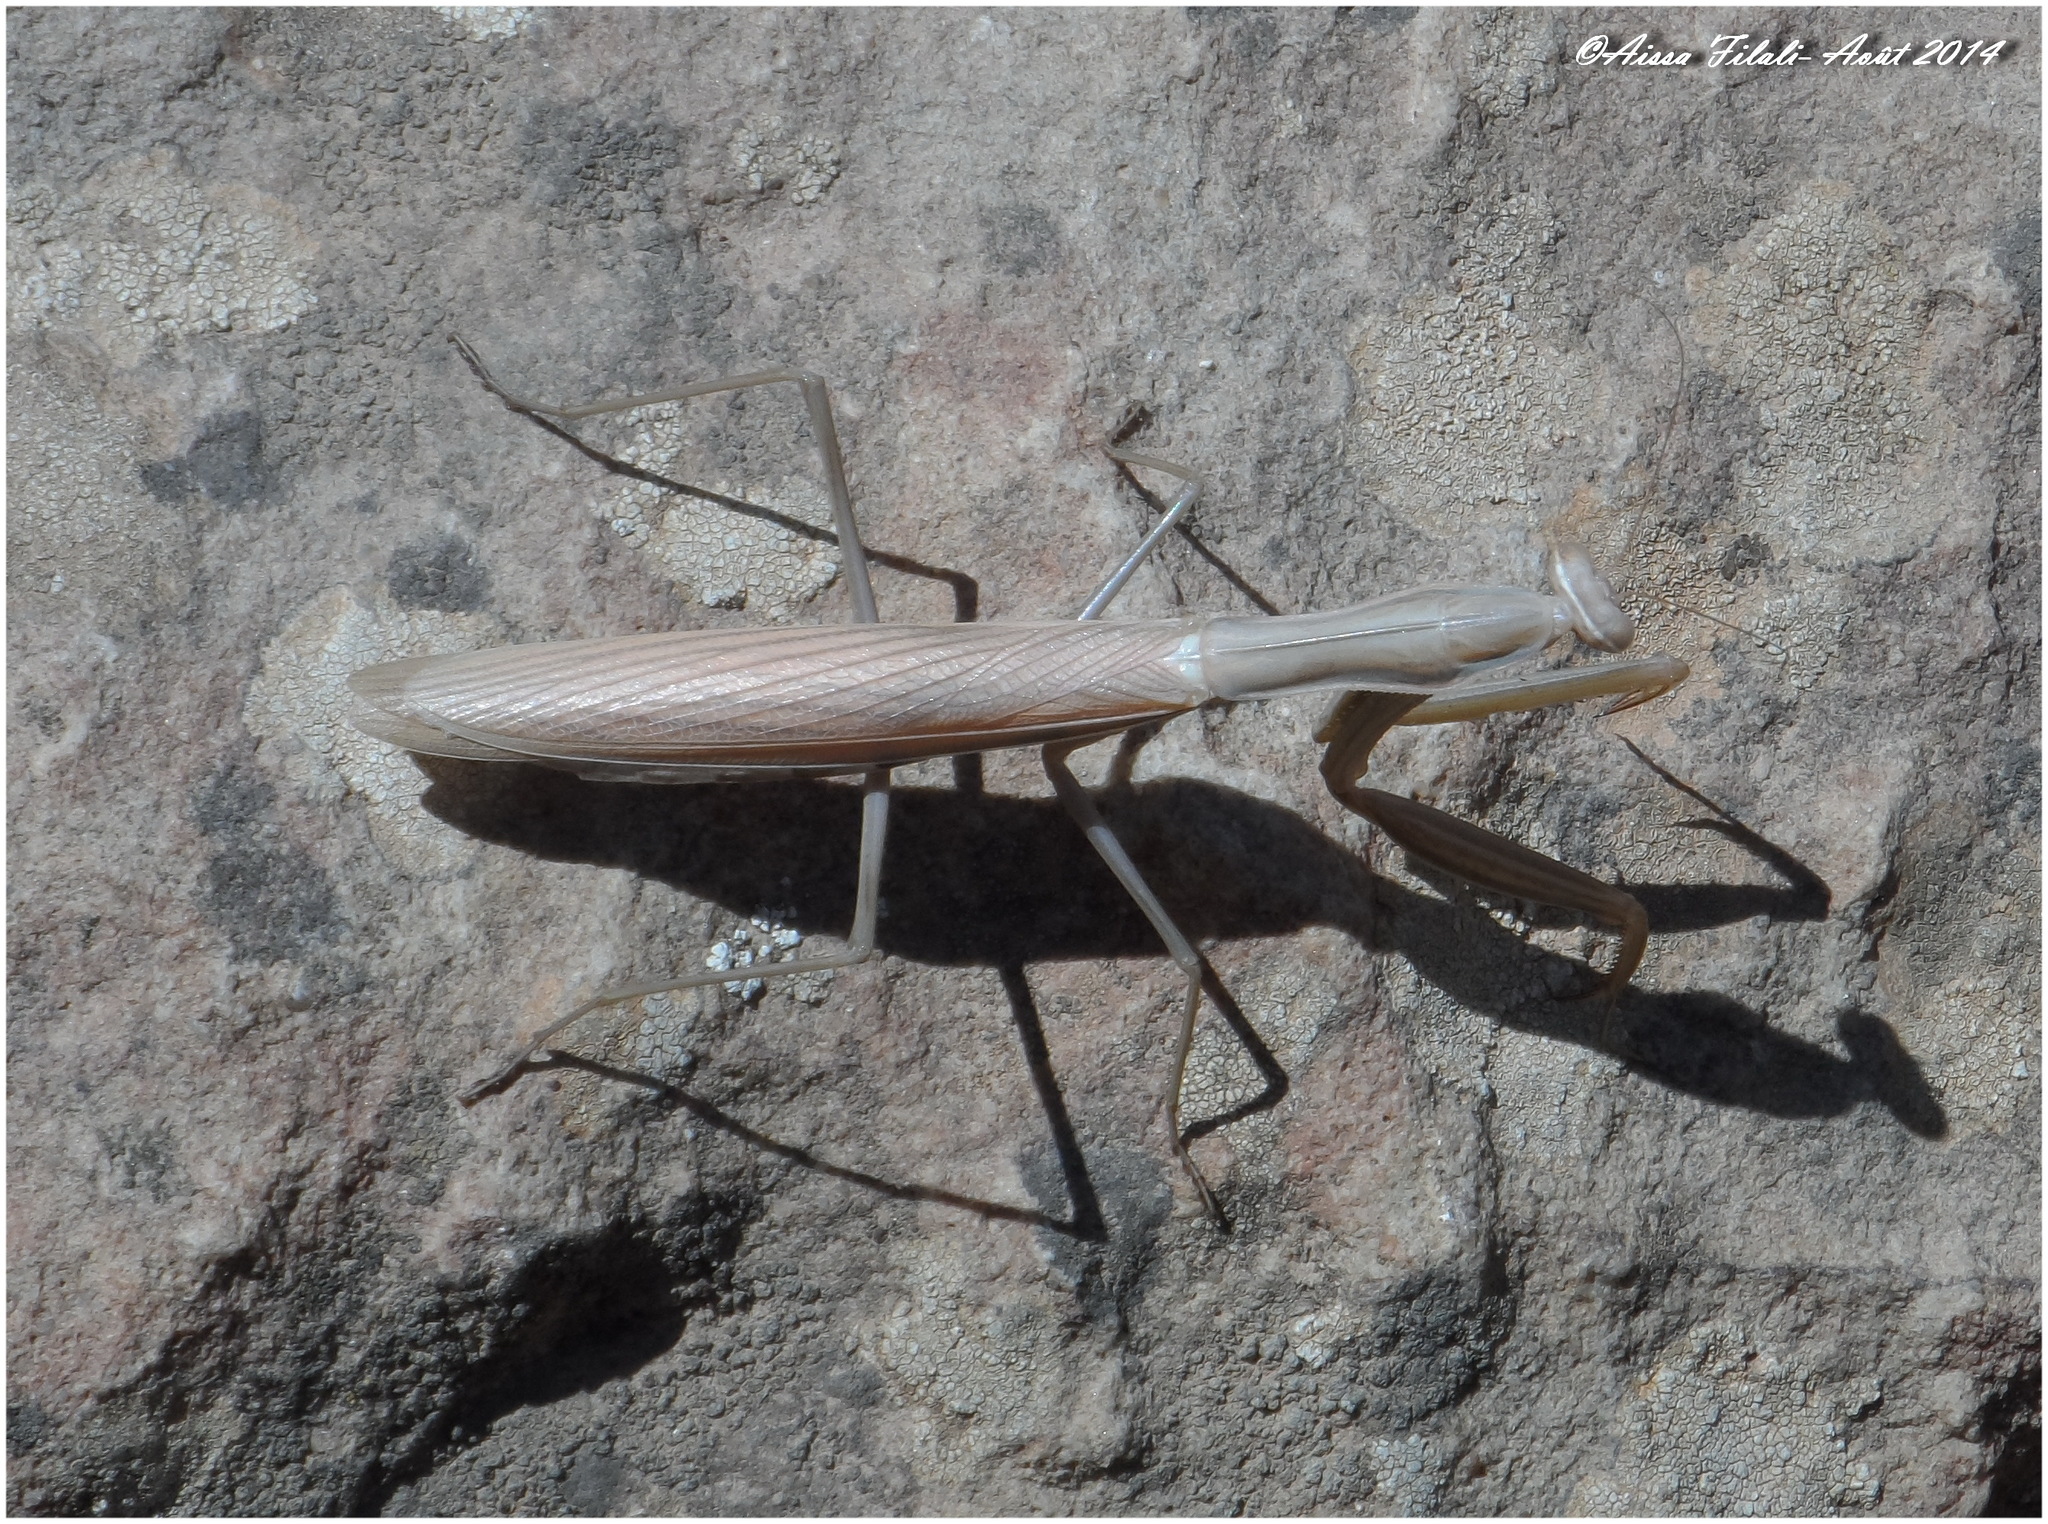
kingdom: Animalia
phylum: Arthropoda
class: Insecta
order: Mantodea
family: Mantidae
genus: Mantis
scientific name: Mantis religiosa
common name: Praying mantis
